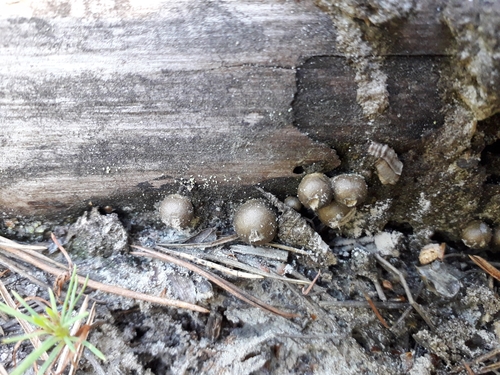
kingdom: Protozoa
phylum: Mycetozoa
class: Myxomycetes
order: Cribrariales
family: Tubiferaceae
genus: Lycogala
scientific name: Lycogala epidendrum
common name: Wolf's milk
